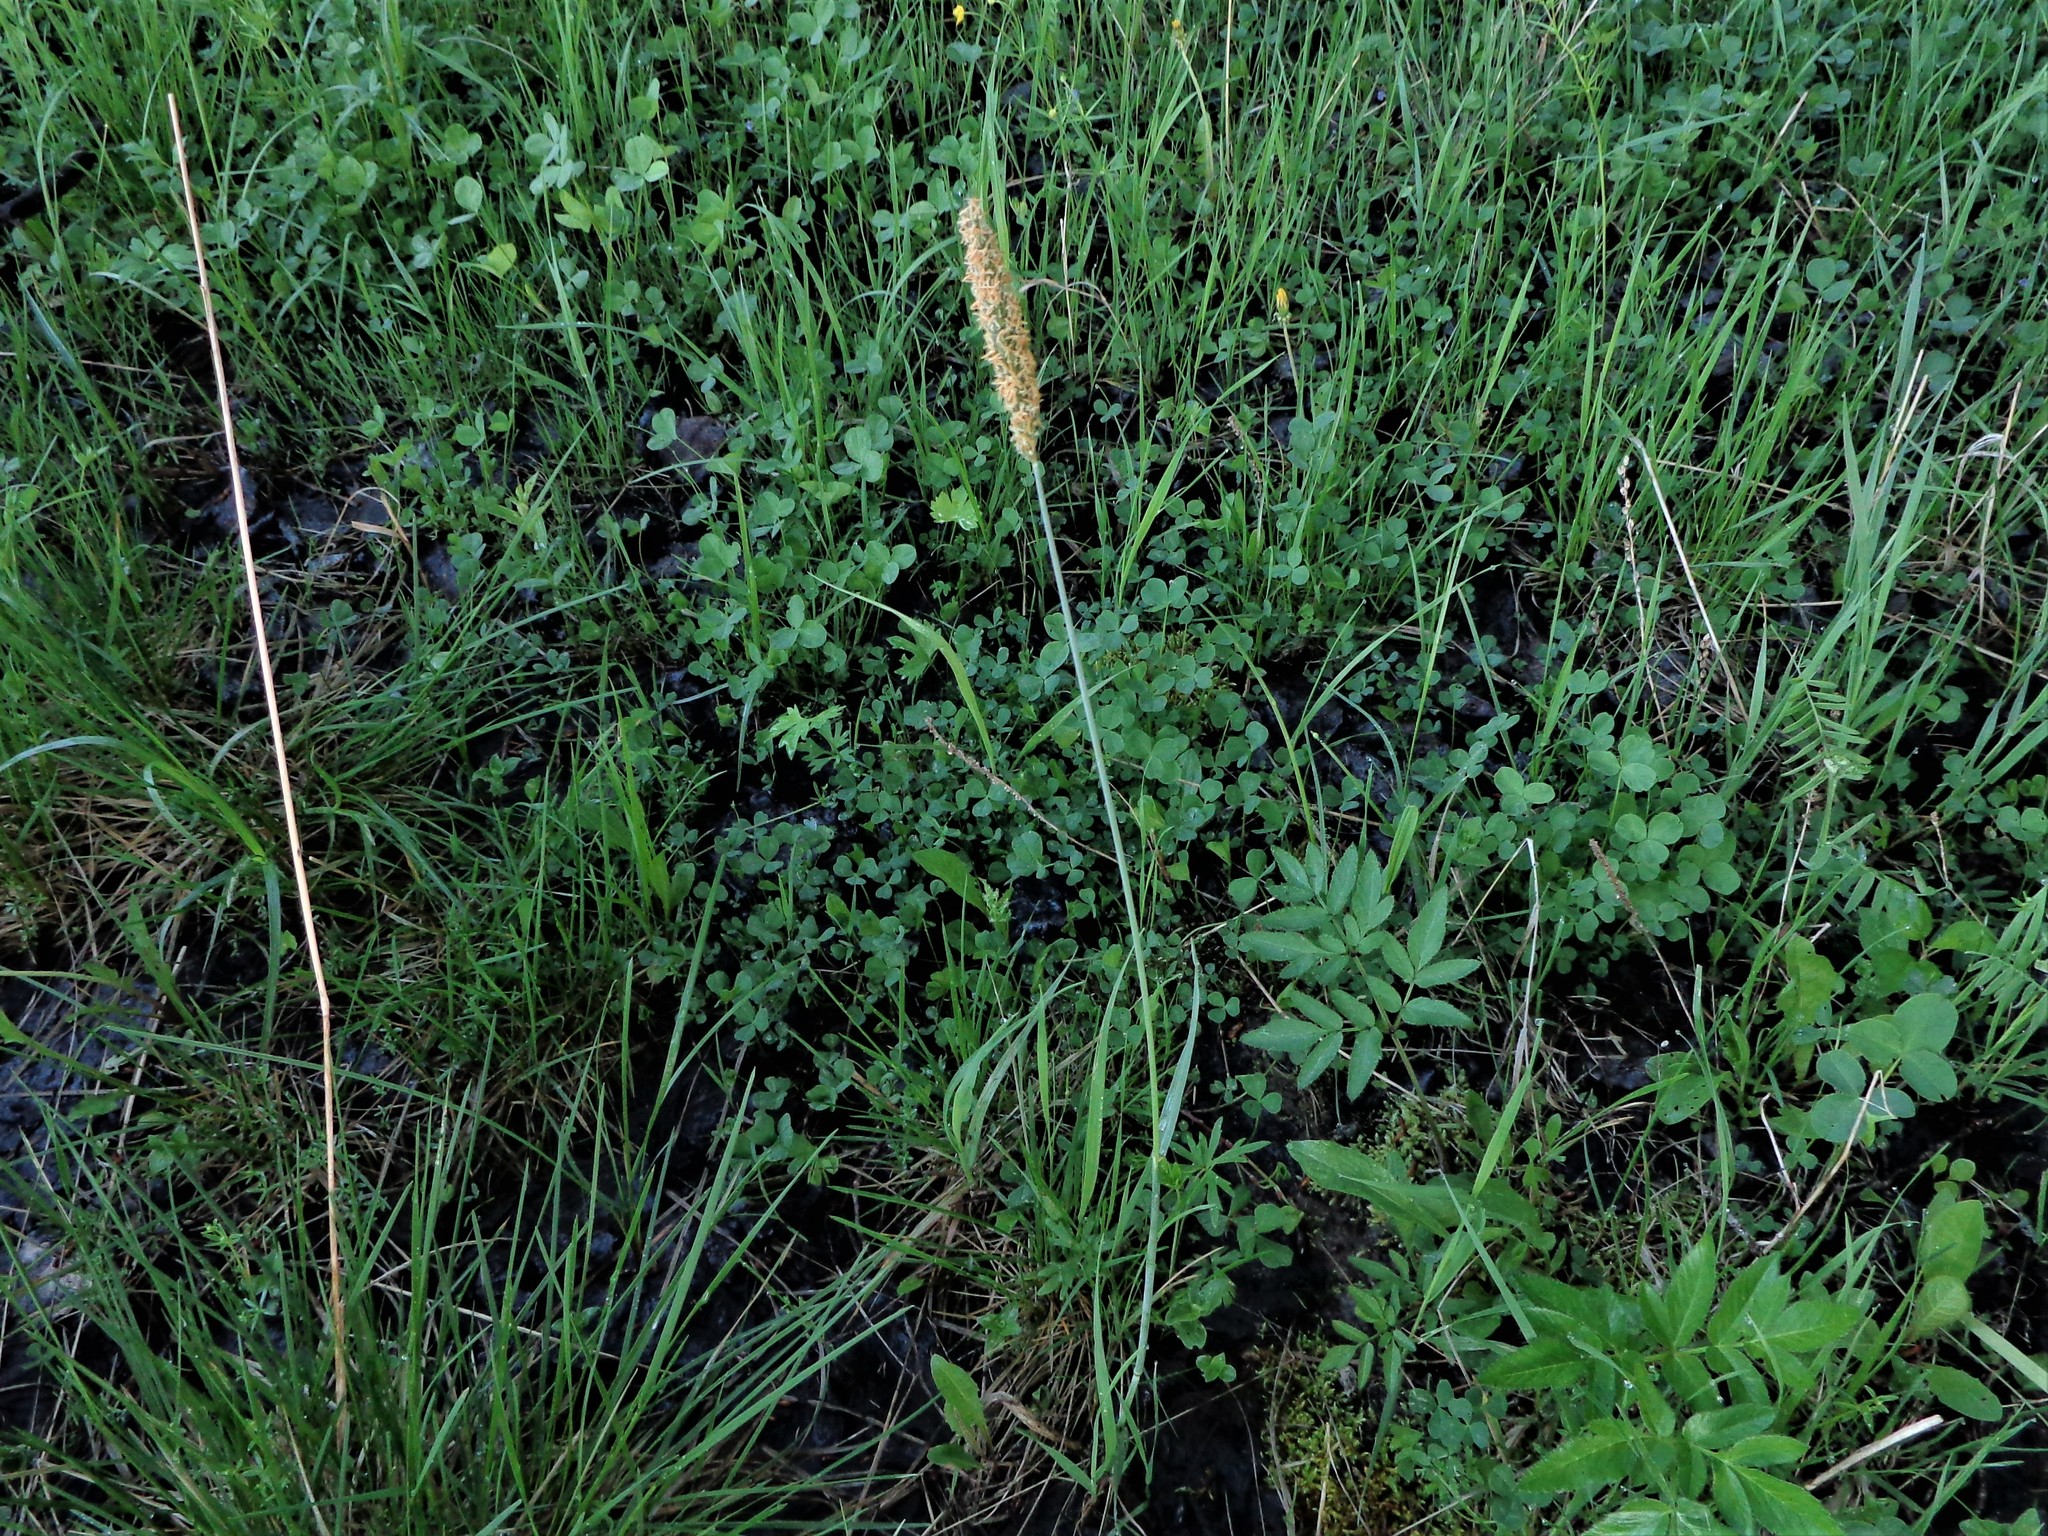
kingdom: Plantae
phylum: Tracheophyta
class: Liliopsida
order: Poales
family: Poaceae
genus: Alopecurus
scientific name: Alopecurus pratensis
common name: Meadow foxtail
